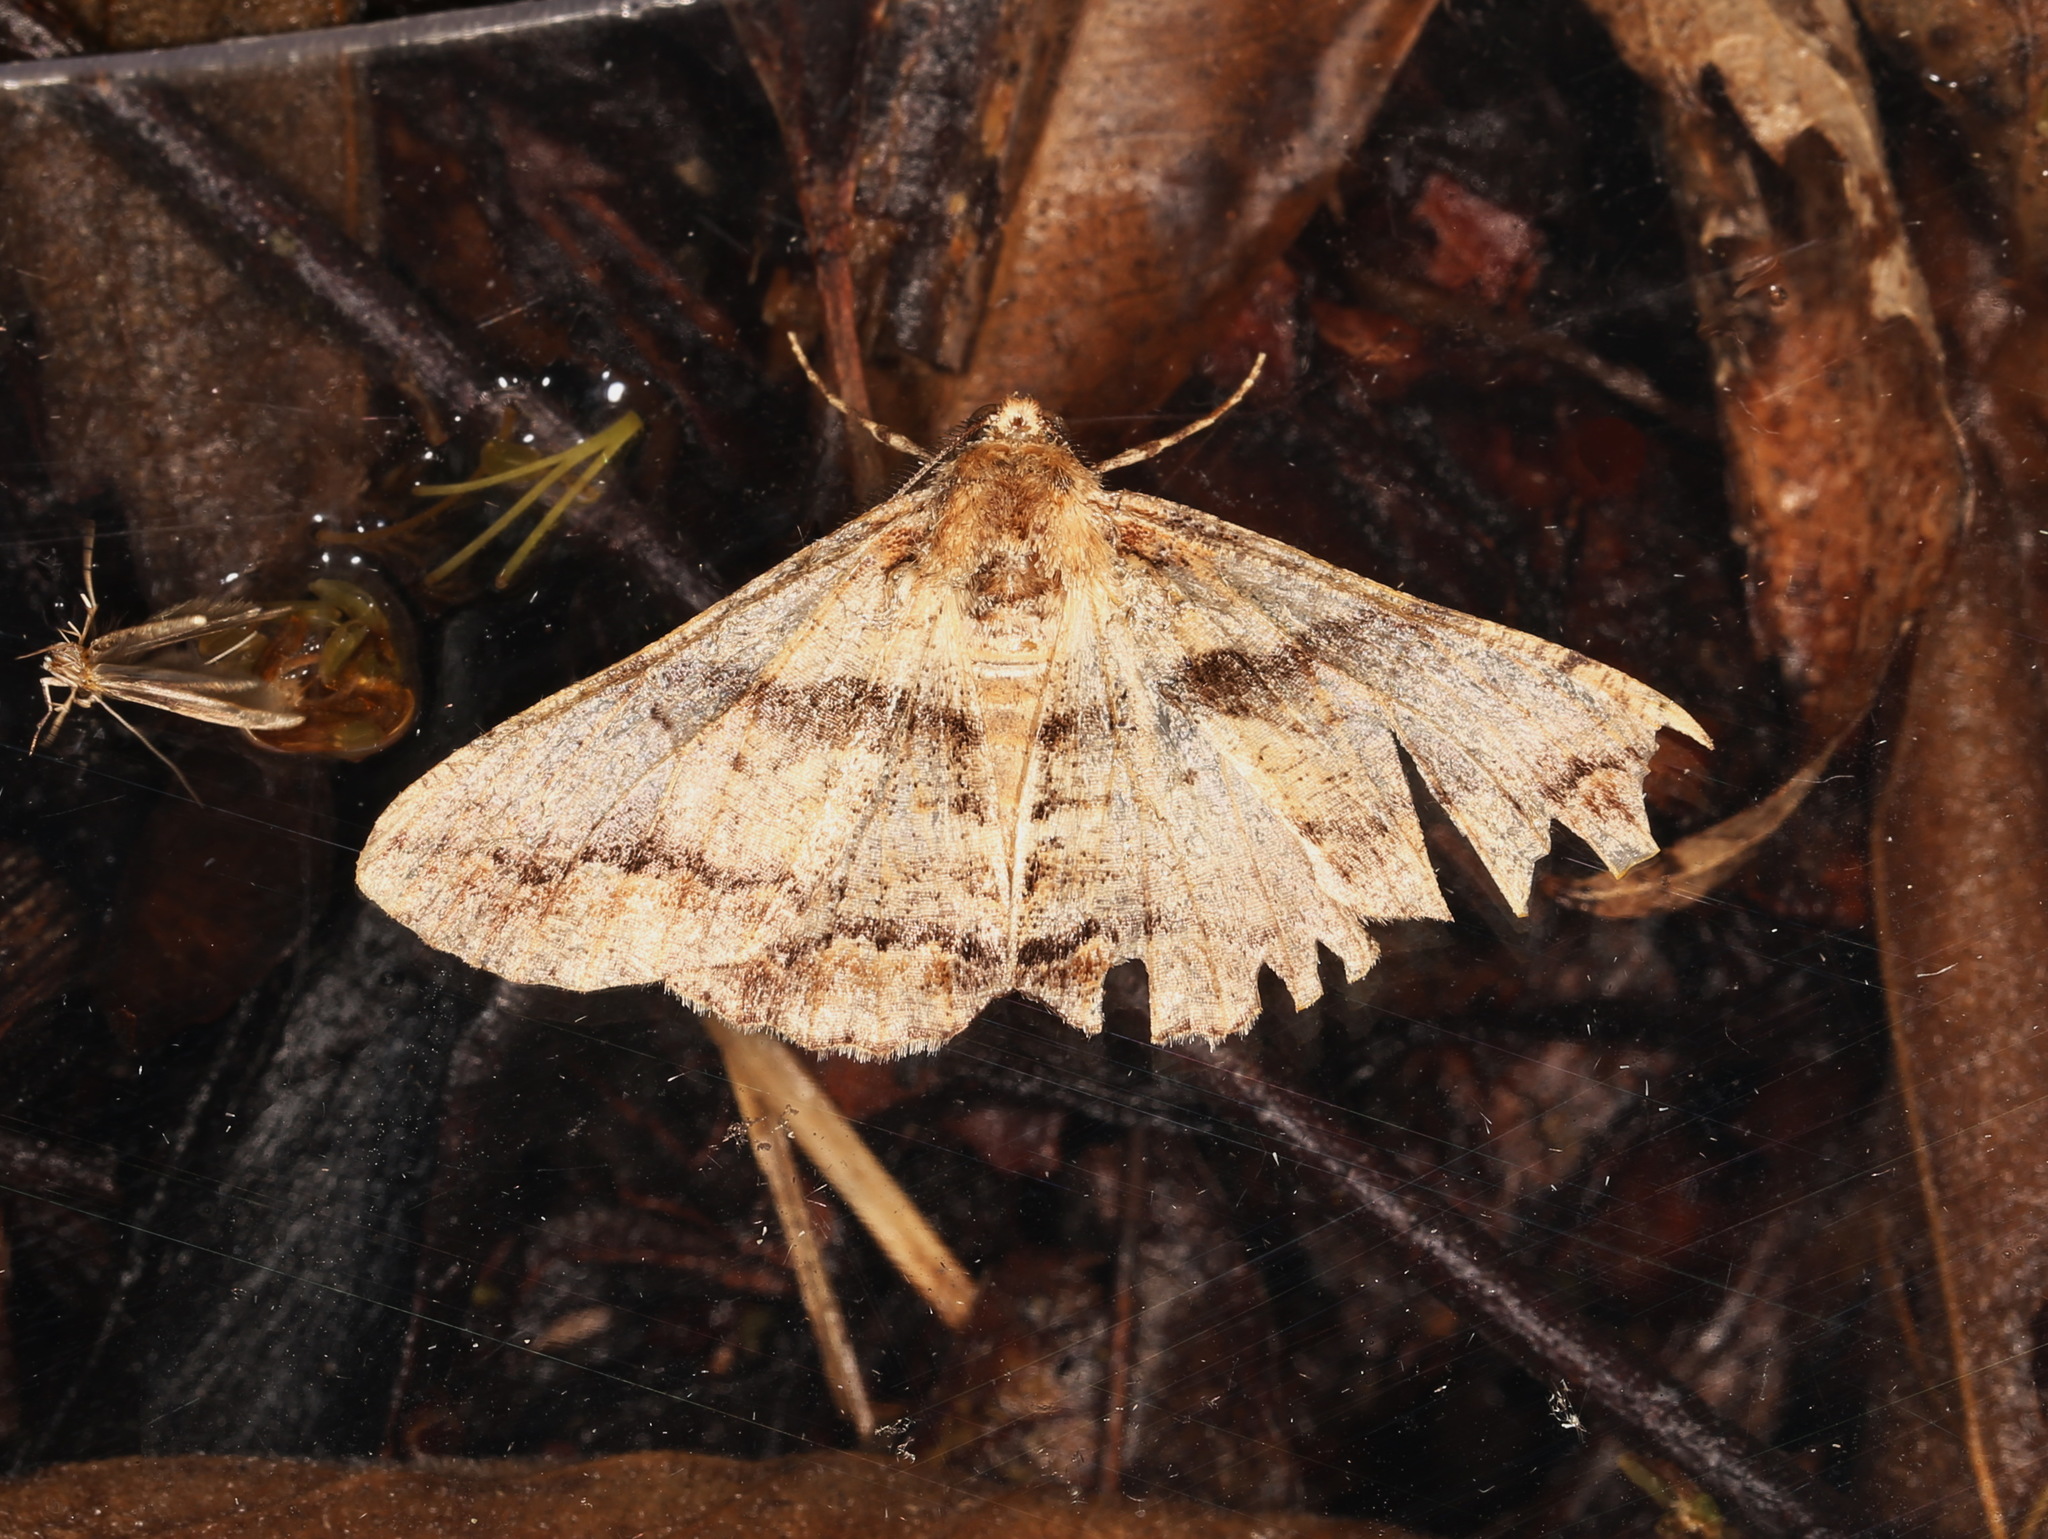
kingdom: Animalia
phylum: Arthropoda
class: Insecta
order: Lepidoptera
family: Geometridae
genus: Gastrinodes
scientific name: Gastrinodes argoplaca
